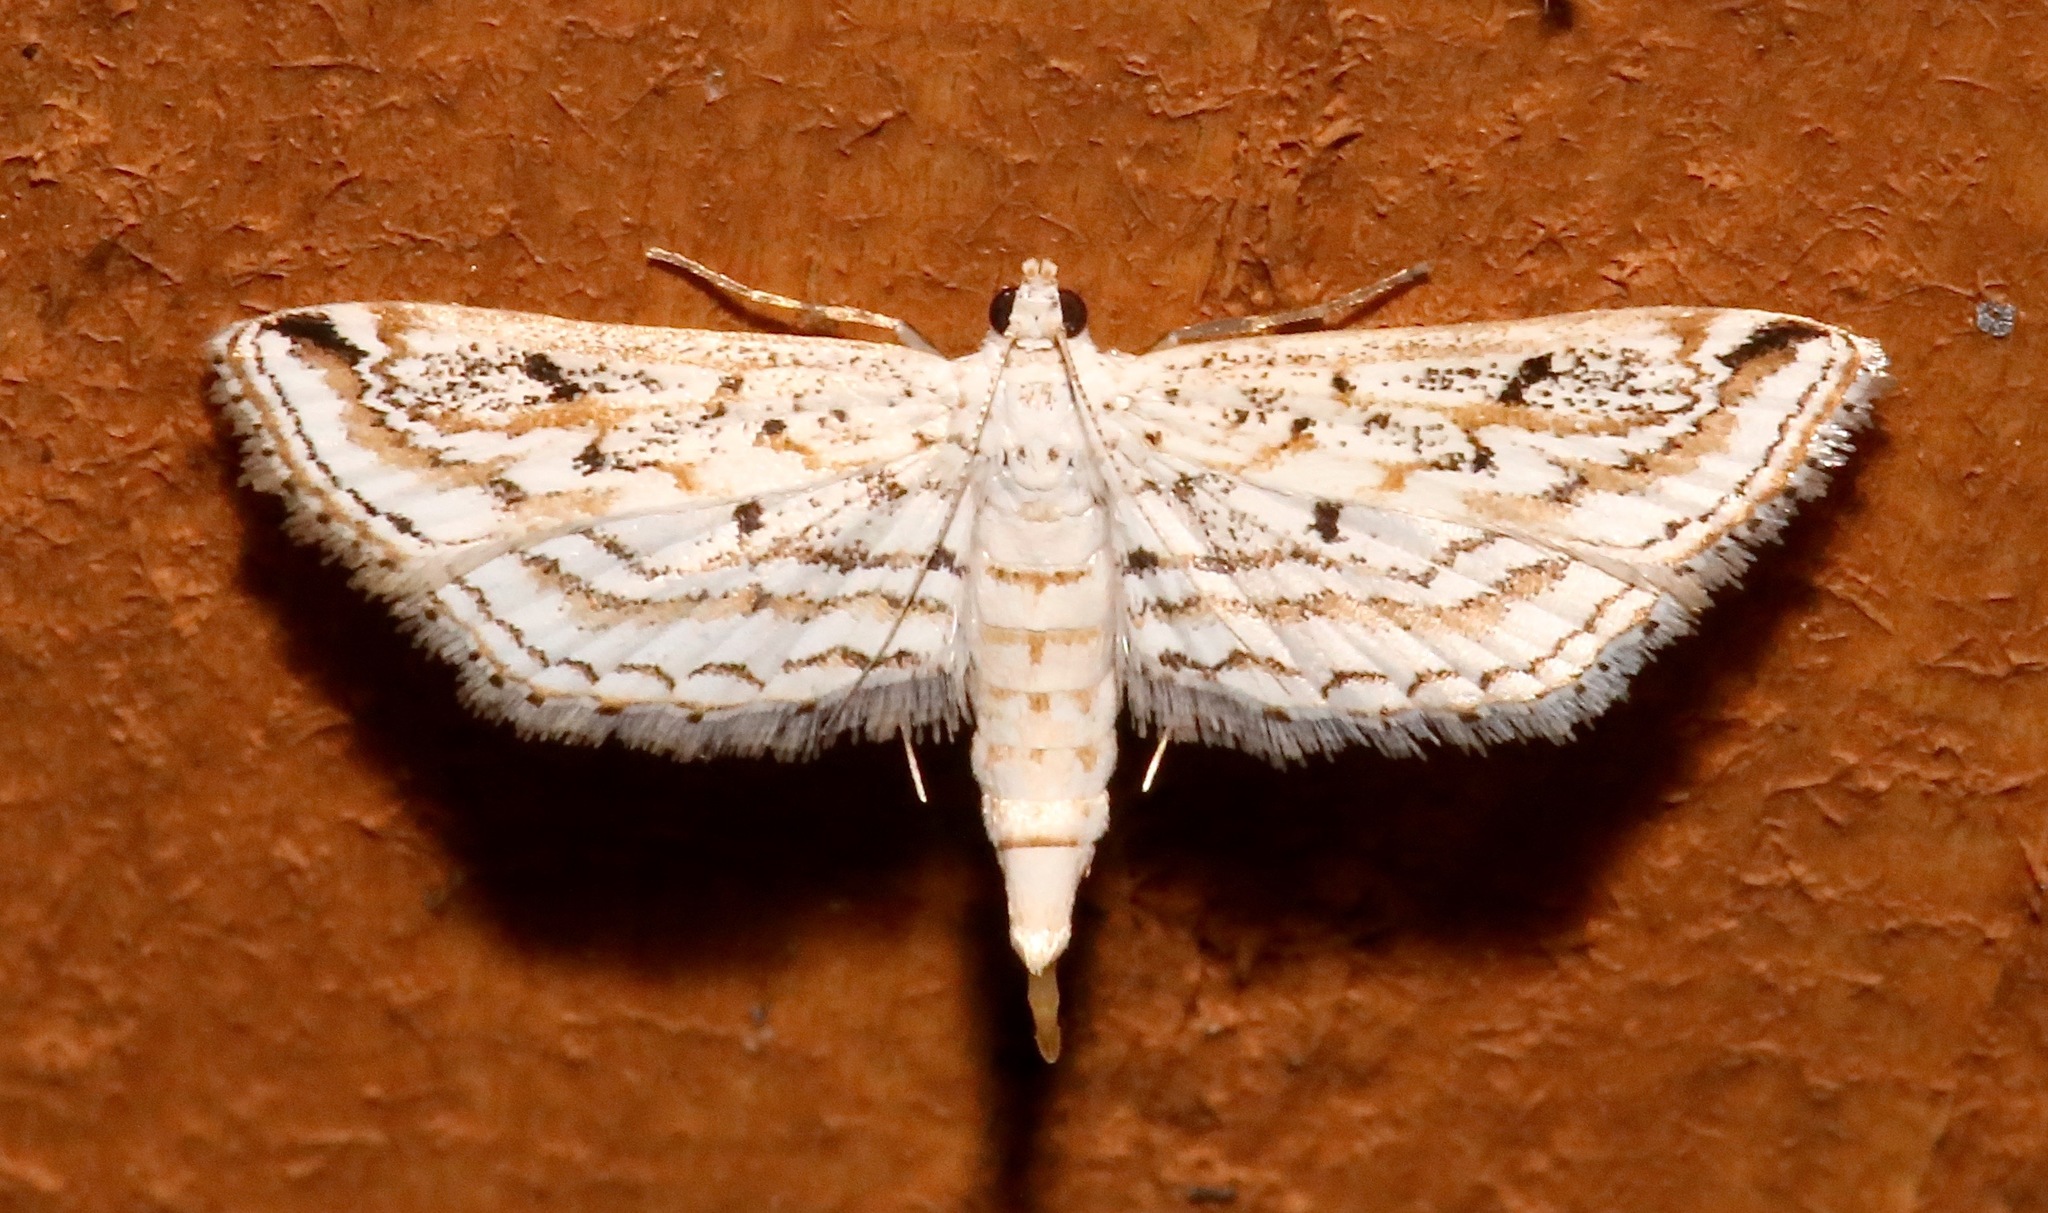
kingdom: Animalia
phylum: Arthropoda
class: Insecta
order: Lepidoptera
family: Crambidae
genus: Parapoynx
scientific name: Parapoynx allionealis
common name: Bladderwort casemaker
